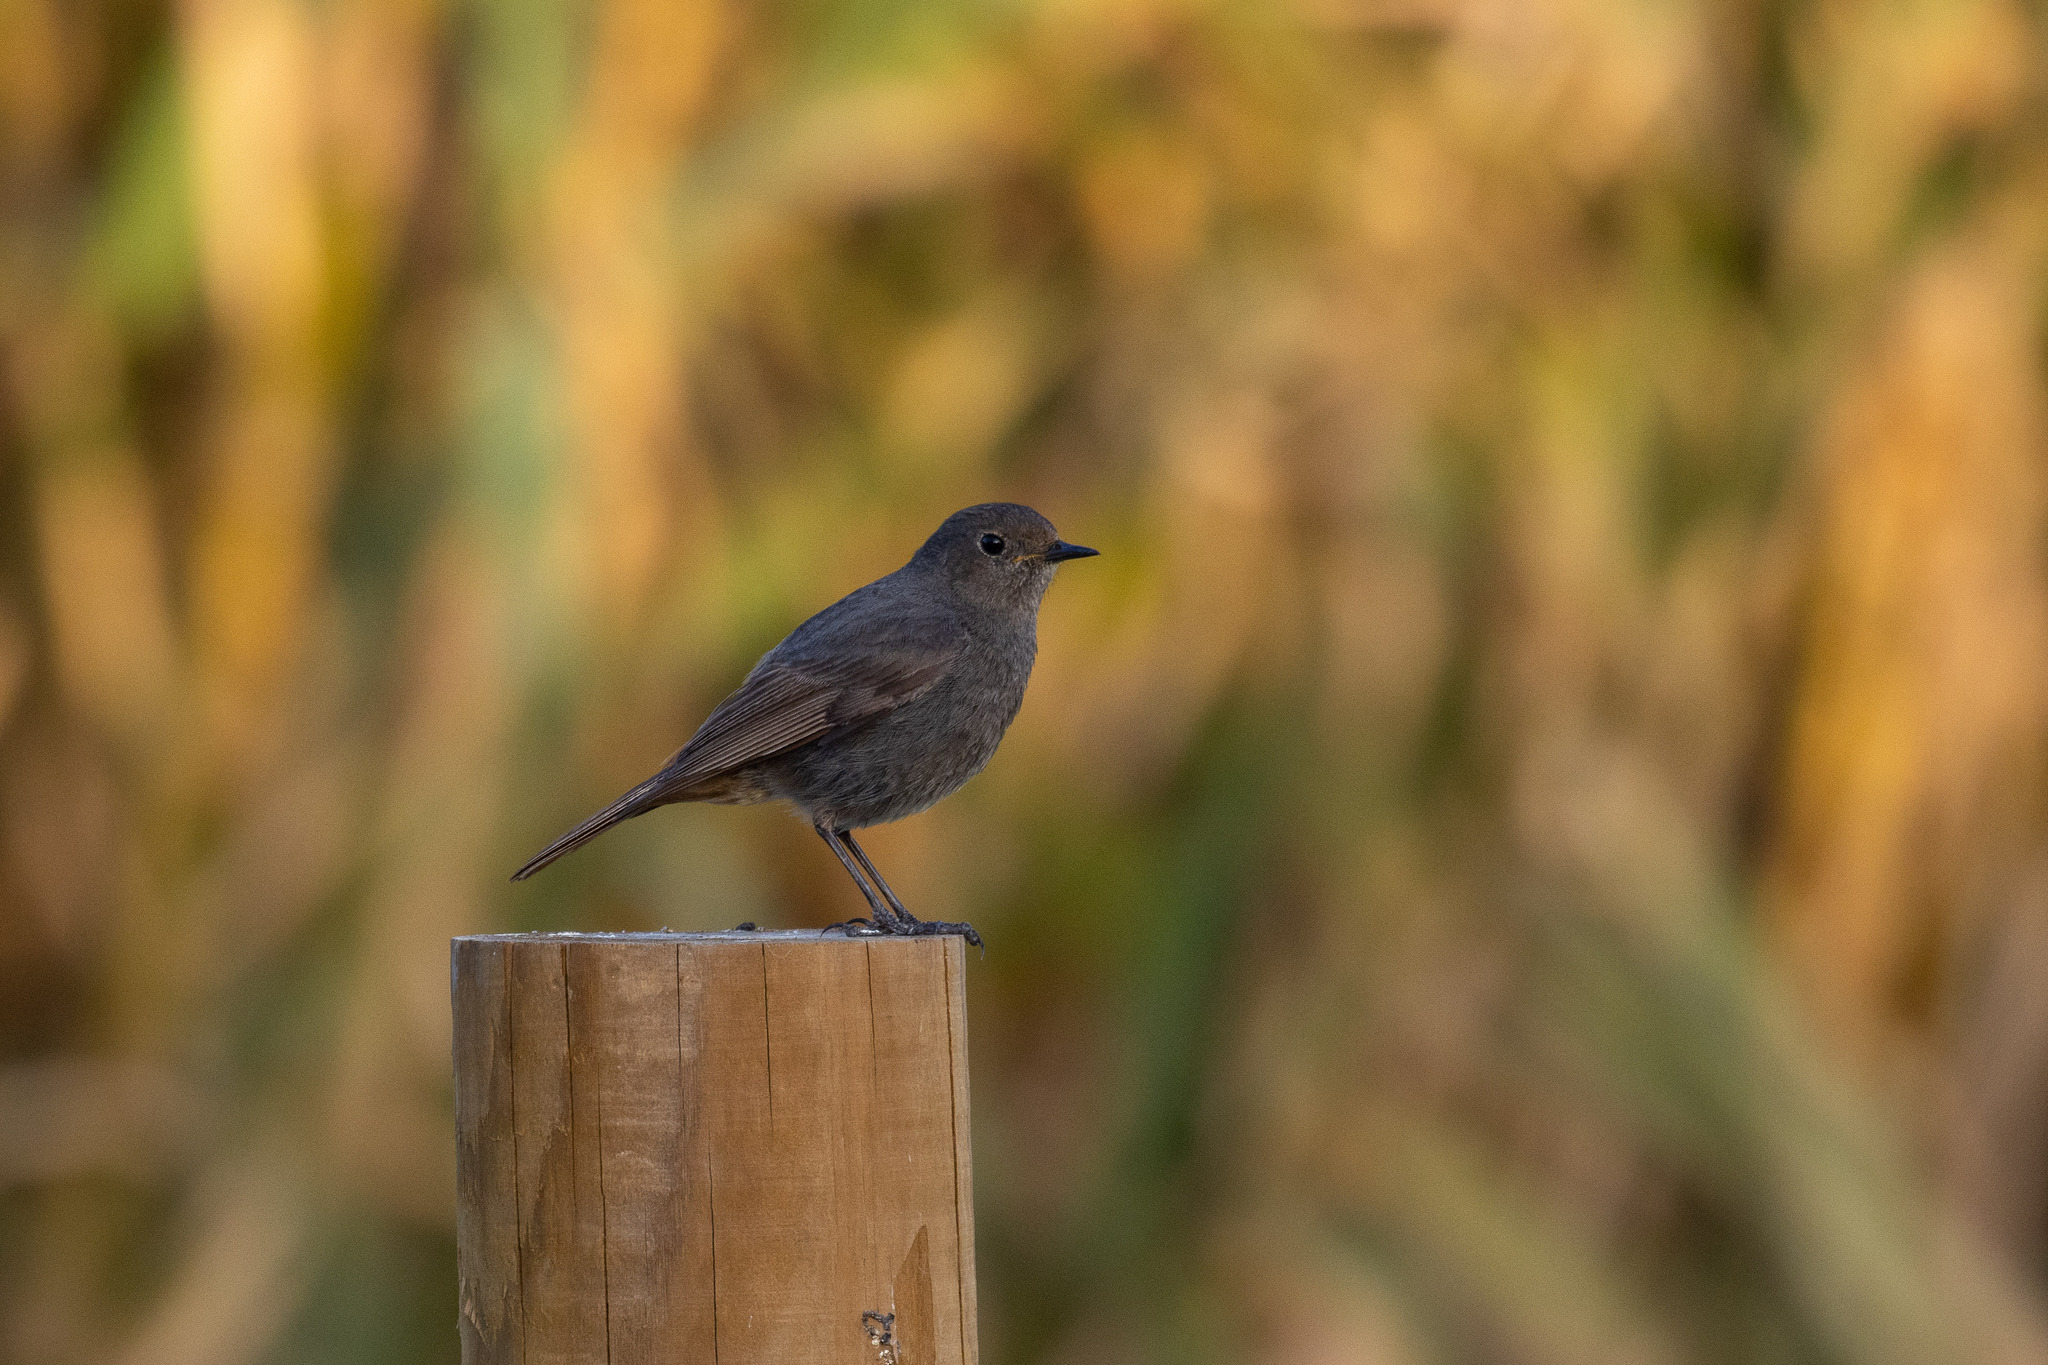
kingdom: Animalia
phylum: Chordata
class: Aves
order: Passeriformes
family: Muscicapidae
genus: Phoenicurus
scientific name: Phoenicurus ochruros
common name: Black redstart
